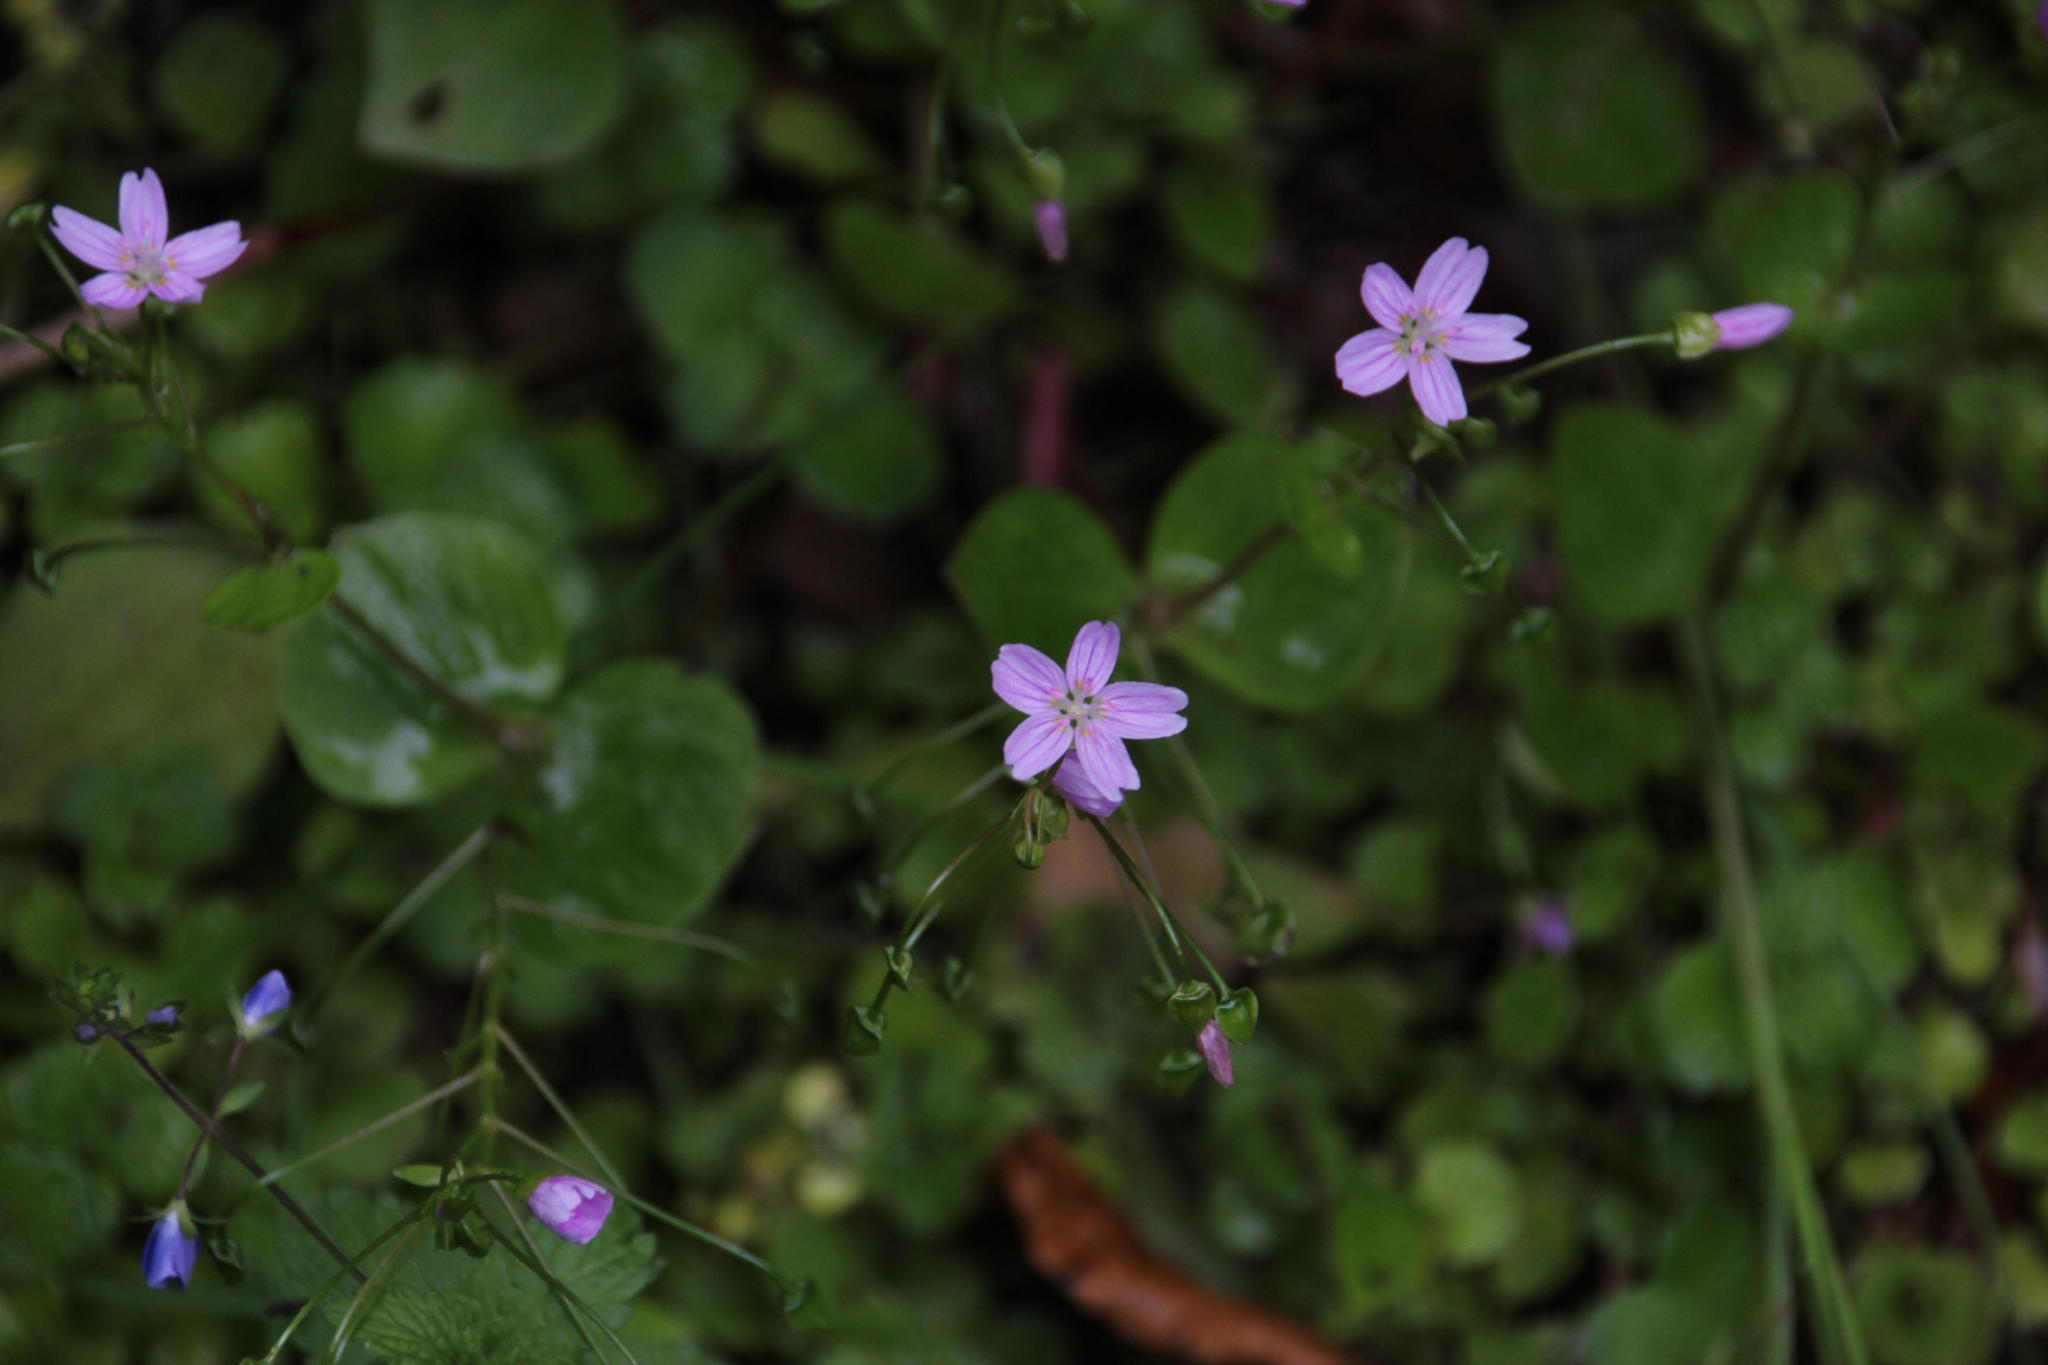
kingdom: Plantae
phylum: Tracheophyta
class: Magnoliopsida
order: Caryophyllales
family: Montiaceae
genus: Claytonia
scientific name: Claytonia sibirica
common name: Pink purslane
